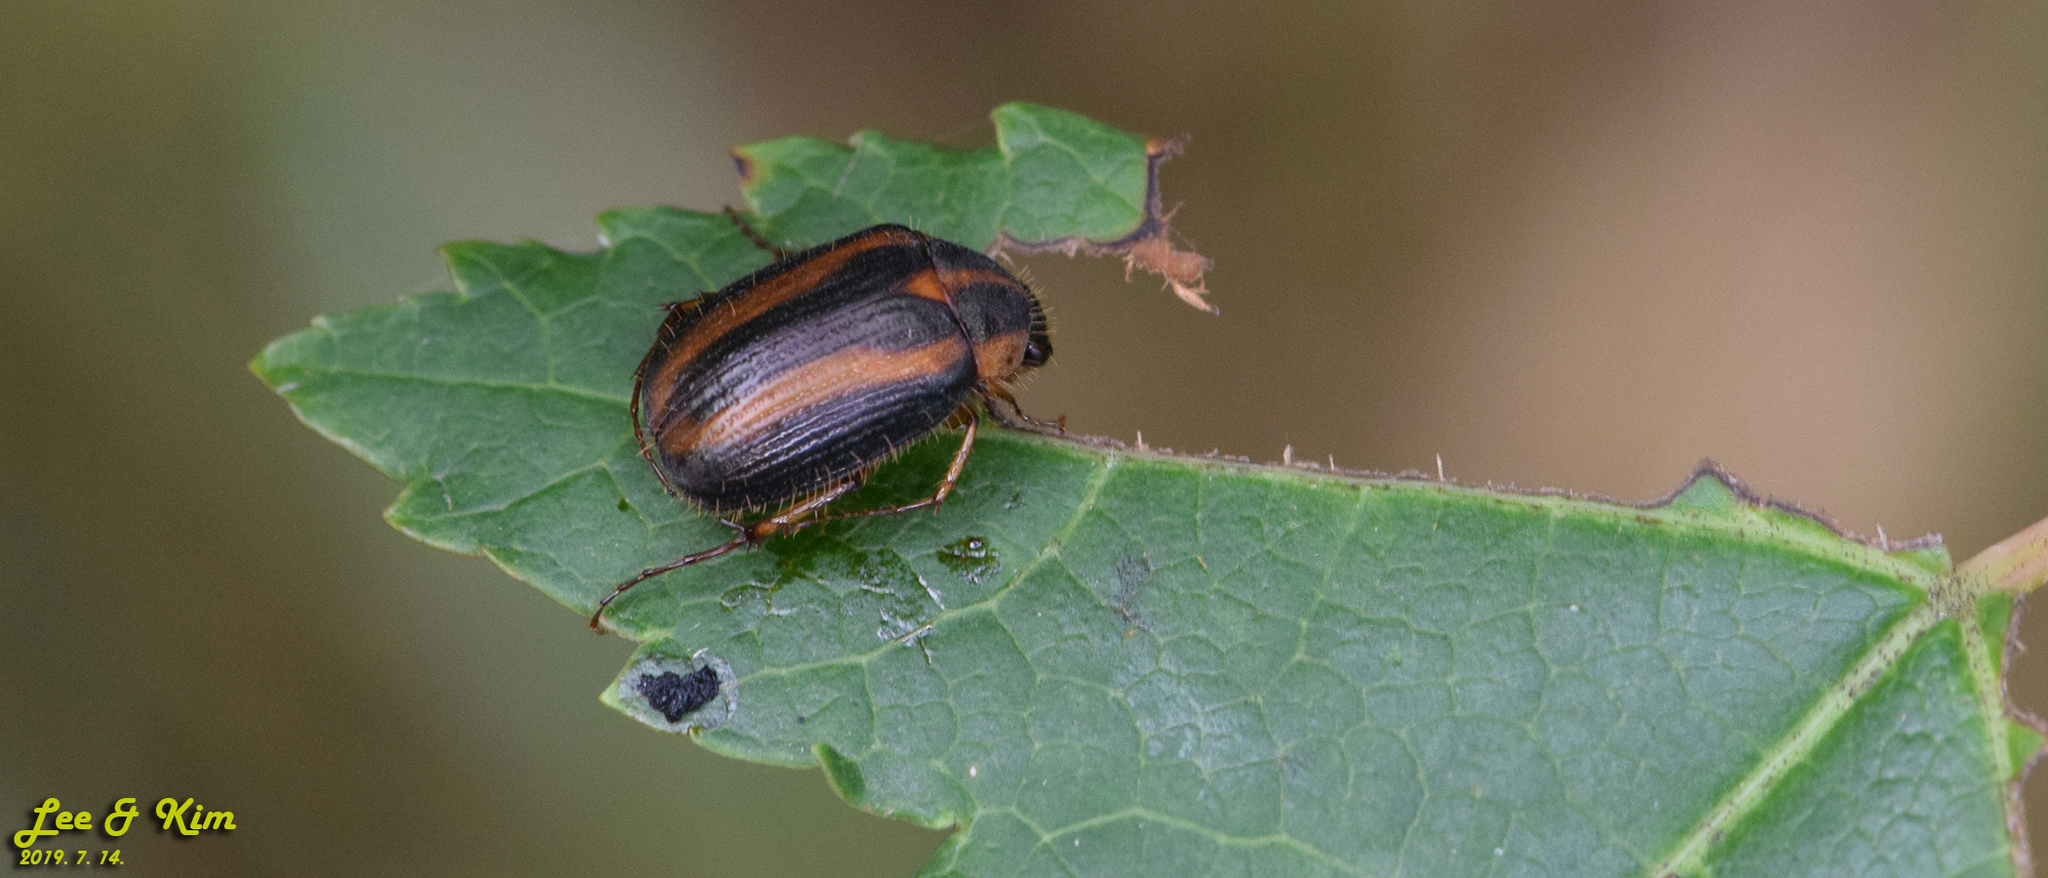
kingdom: Animalia
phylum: Arthropoda
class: Insecta
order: Coleoptera
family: Scarabaeidae
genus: Gastroserica
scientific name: Gastroserica herzi
